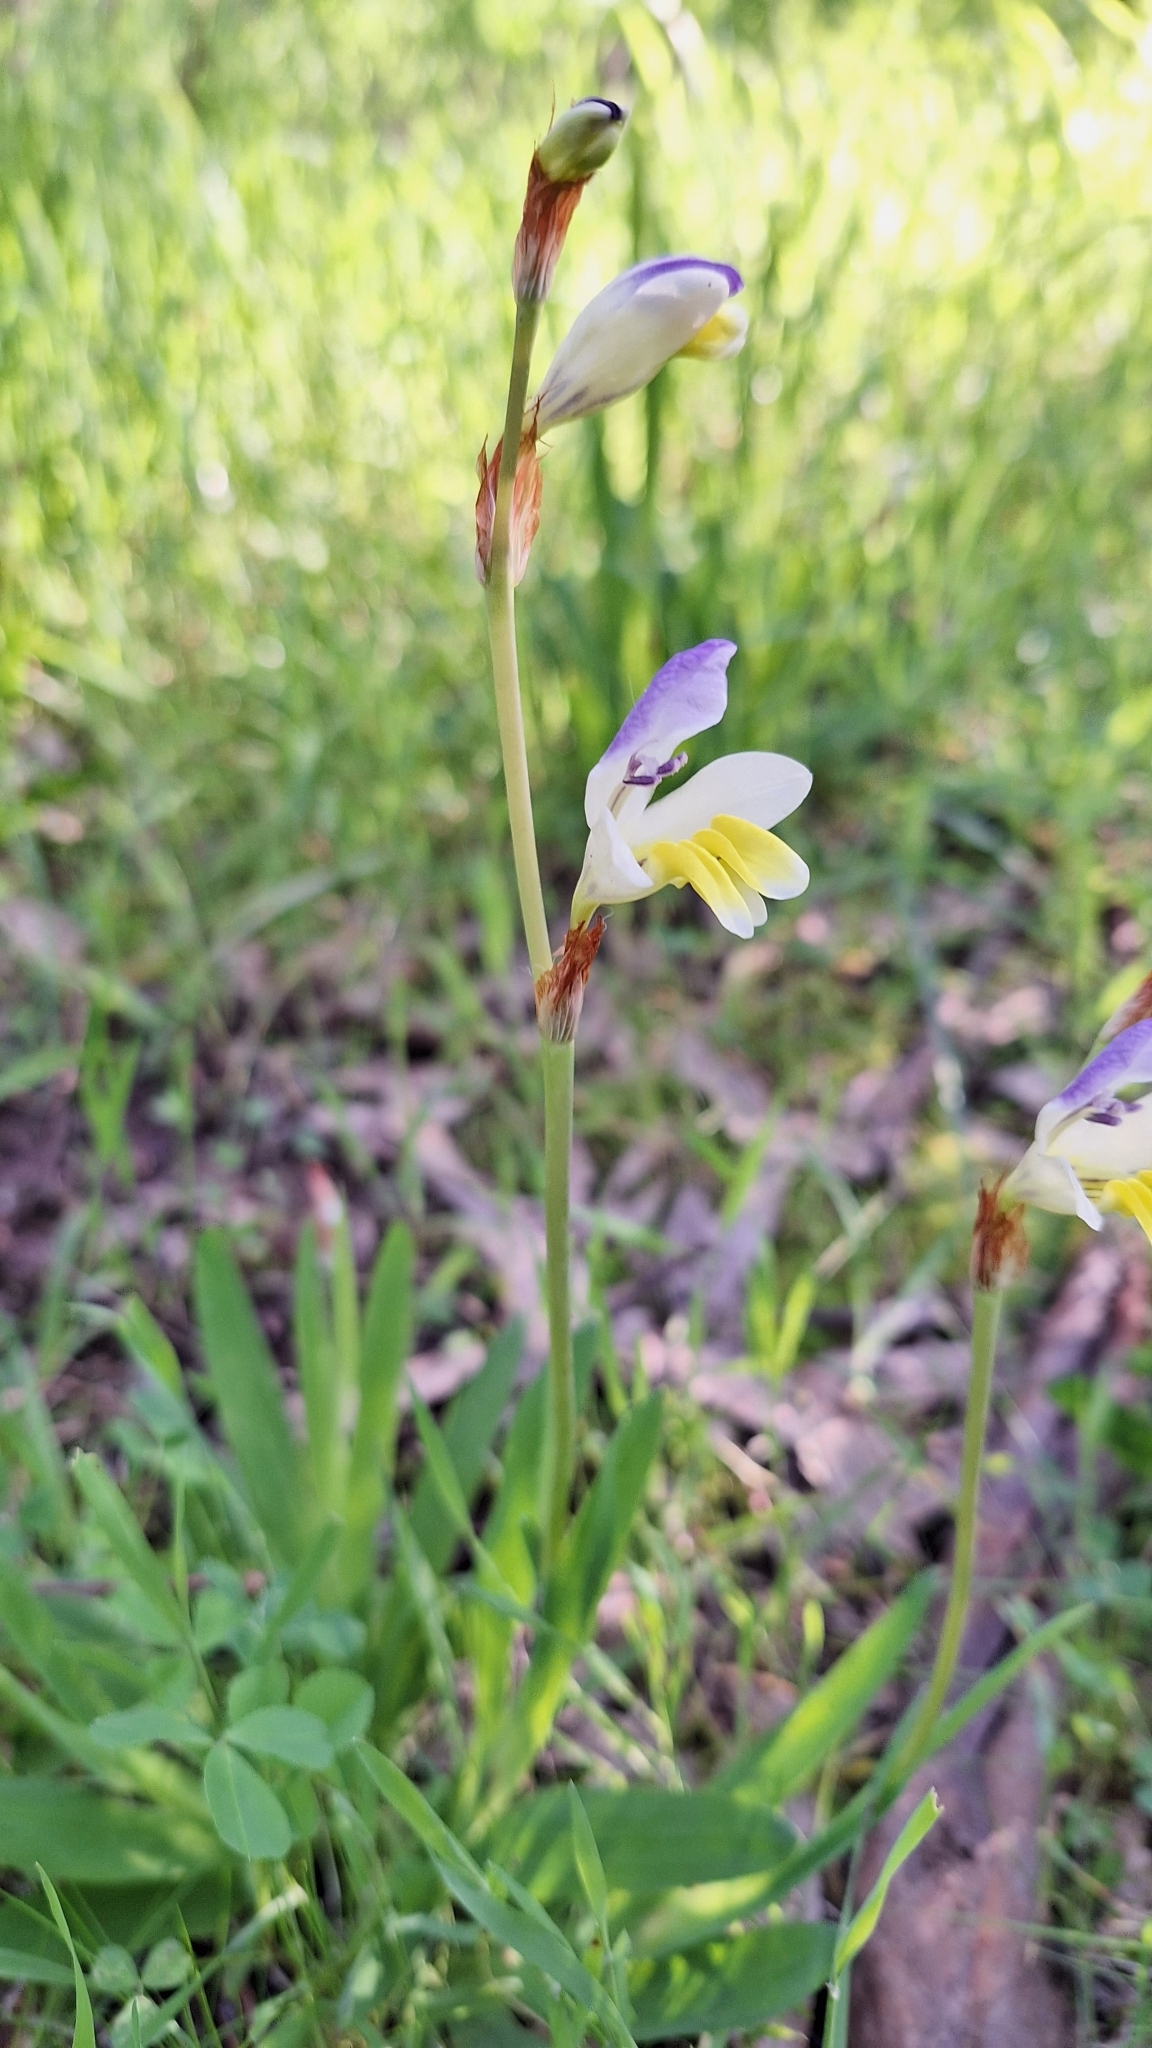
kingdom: Plantae
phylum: Tracheophyta
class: Liliopsida
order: Asparagales
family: Iridaceae
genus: Sparaxis
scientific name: Sparaxis villosa
